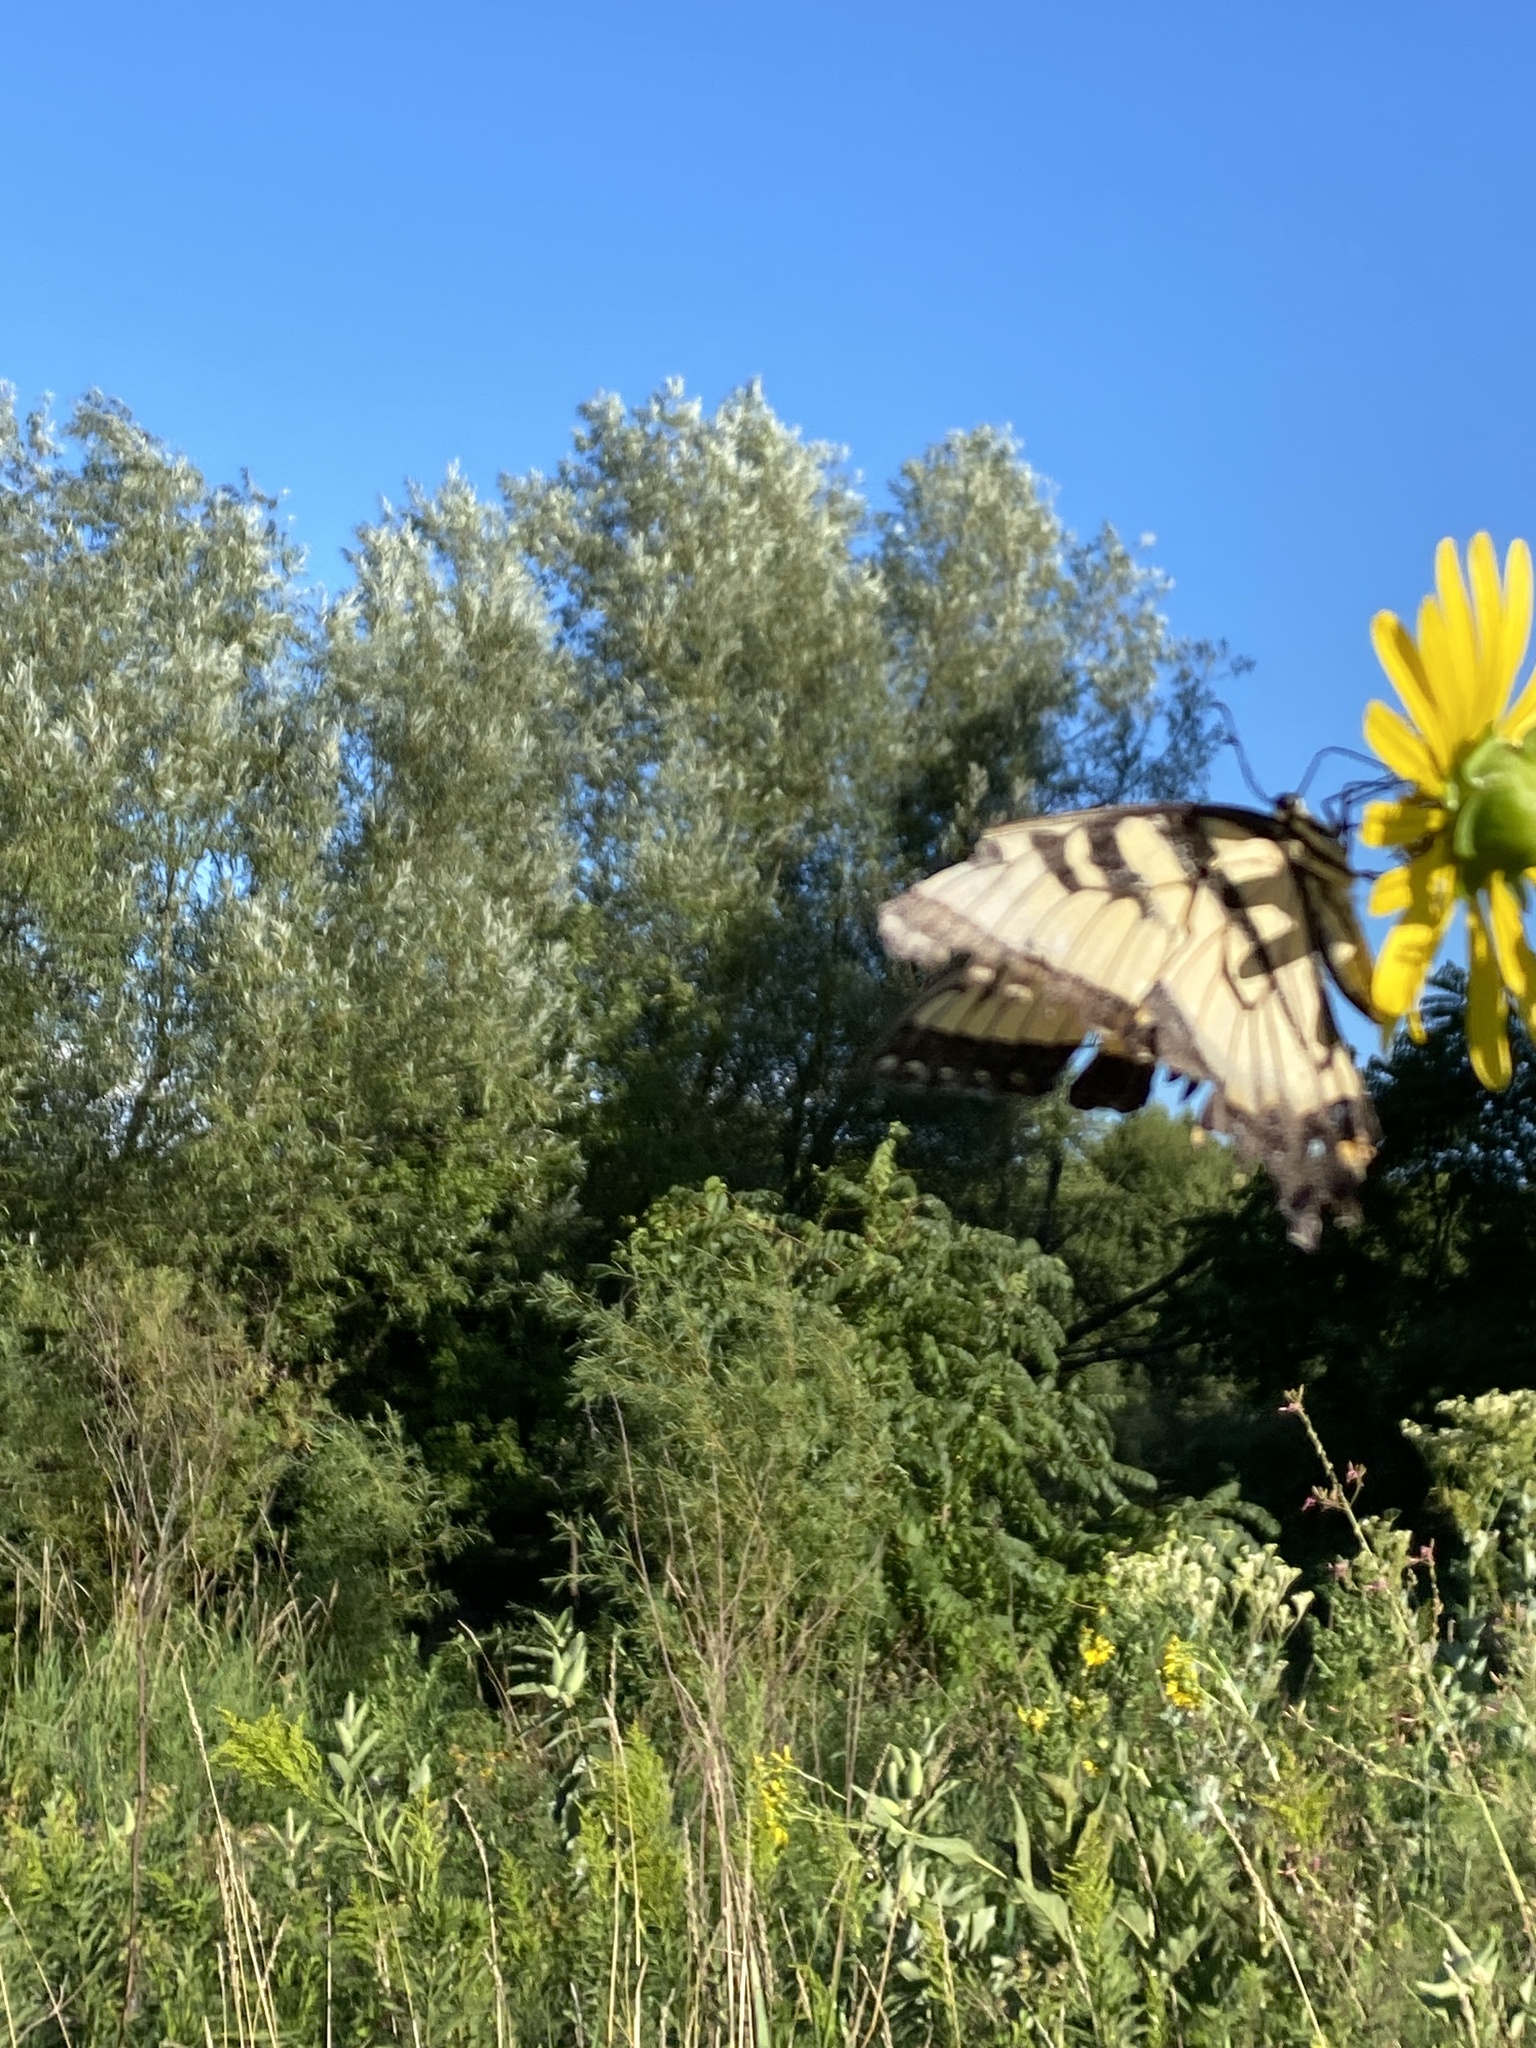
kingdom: Animalia
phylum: Arthropoda
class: Insecta
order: Lepidoptera
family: Papilionidae
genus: Papilio
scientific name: Papilio glaucus
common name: Tiger swallowtail
